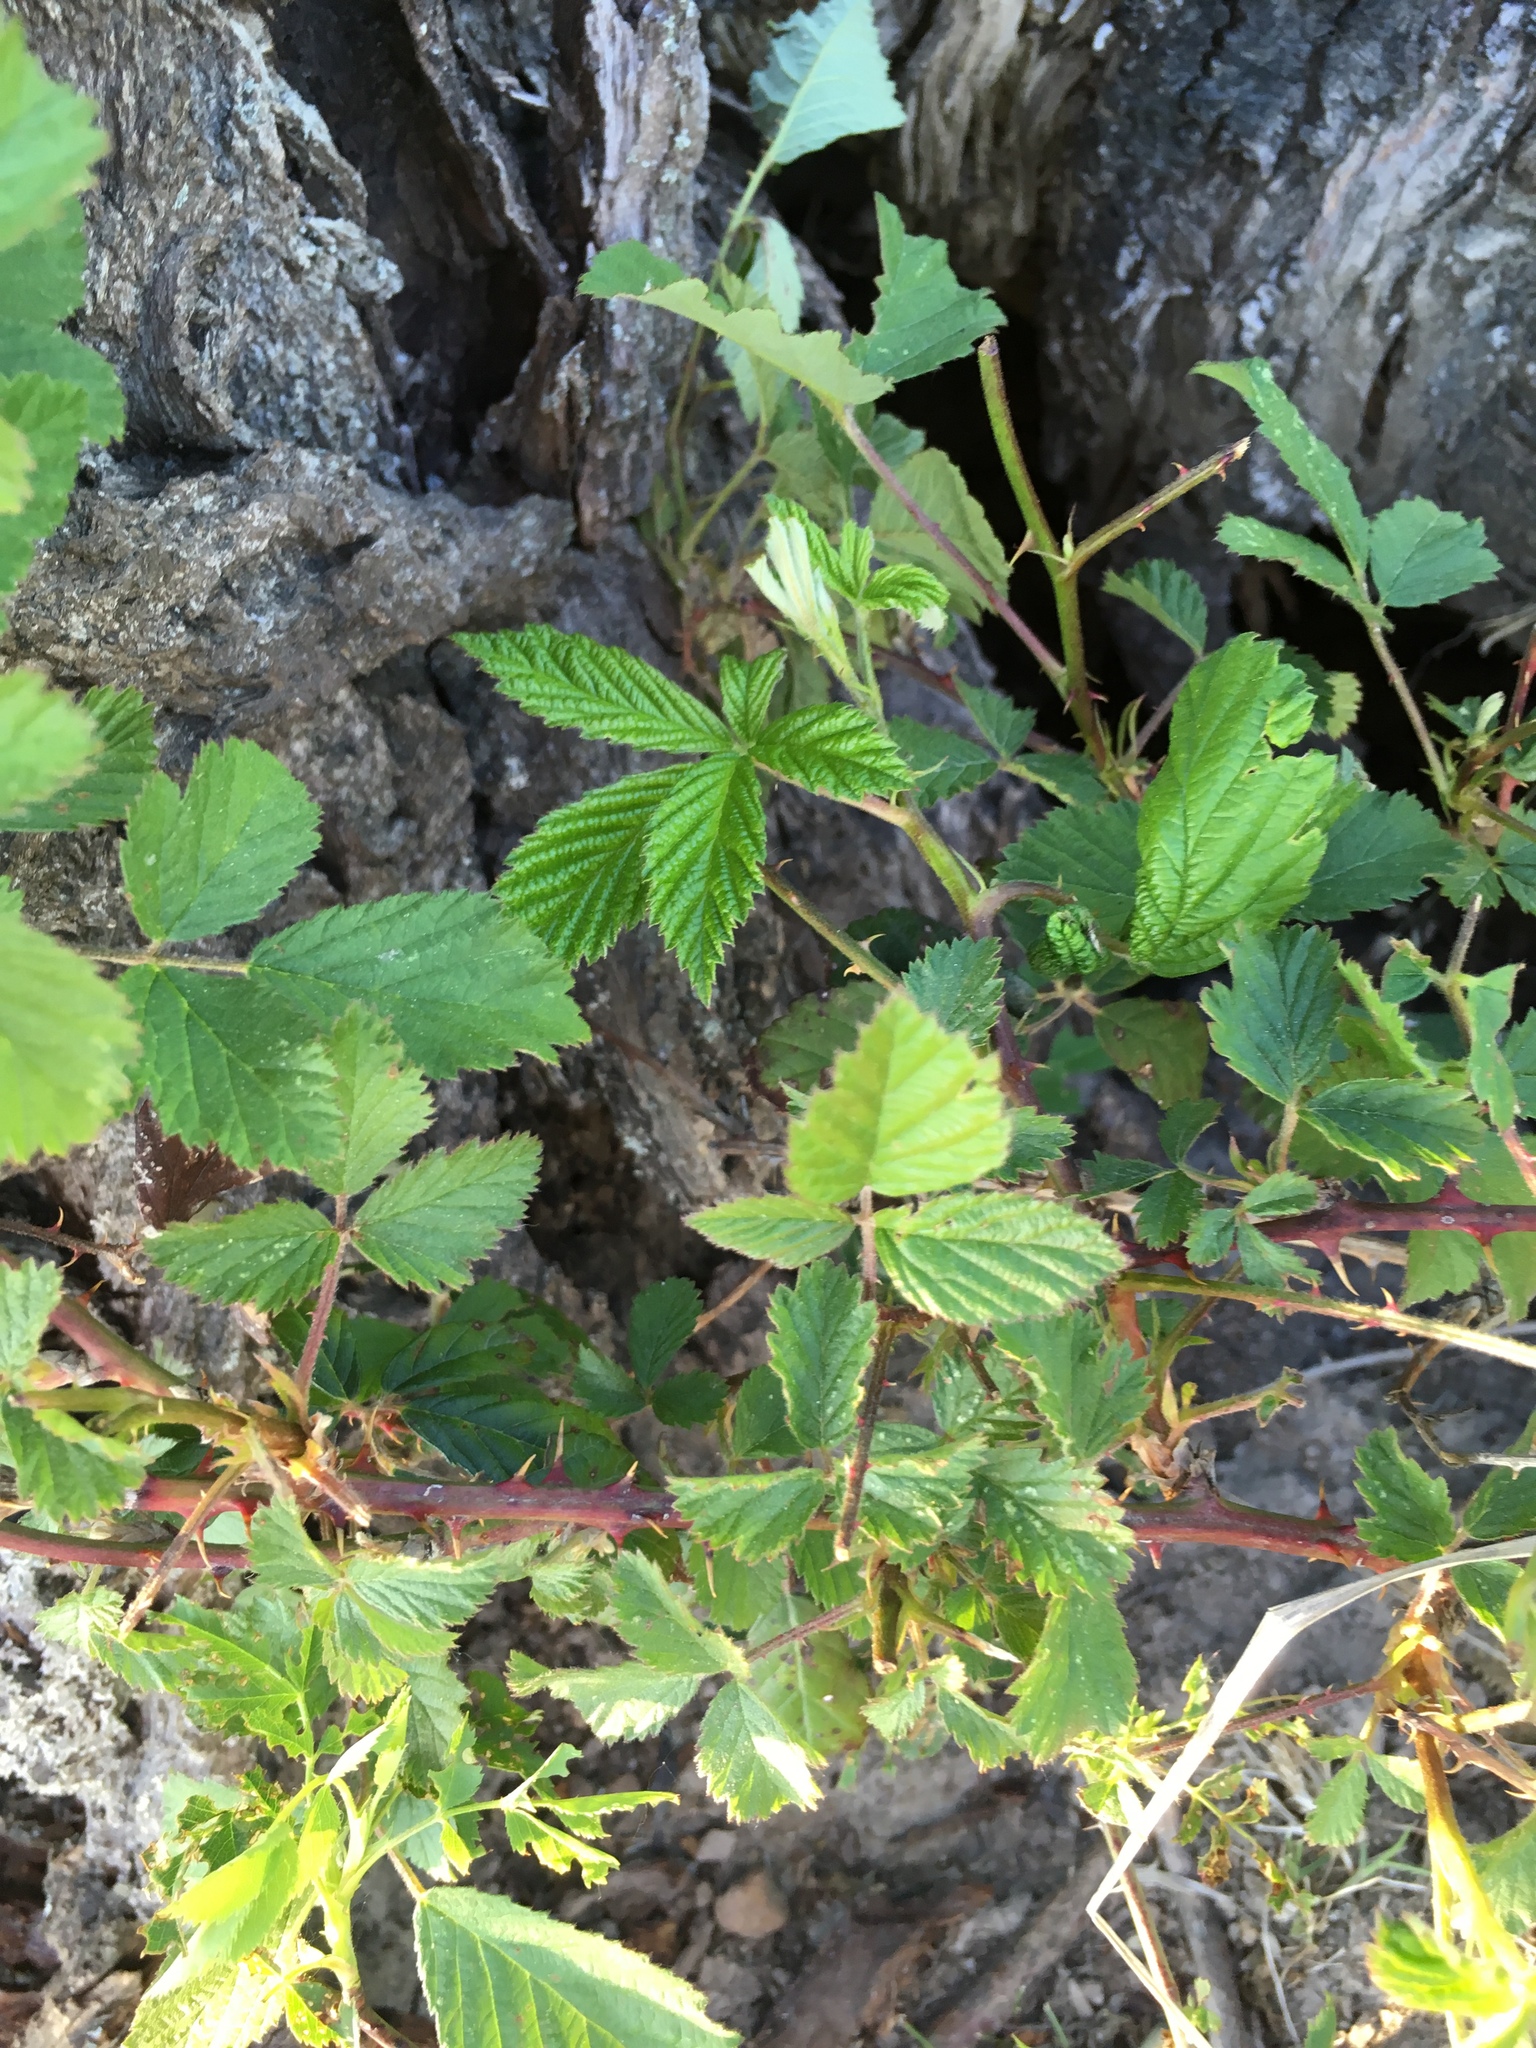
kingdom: Plantae
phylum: Tracheophyta
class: Magnoliopsida
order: Rosales
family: Rosaceae
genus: Rubus
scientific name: Rubus armeniacus
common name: Himalayan blackberry
